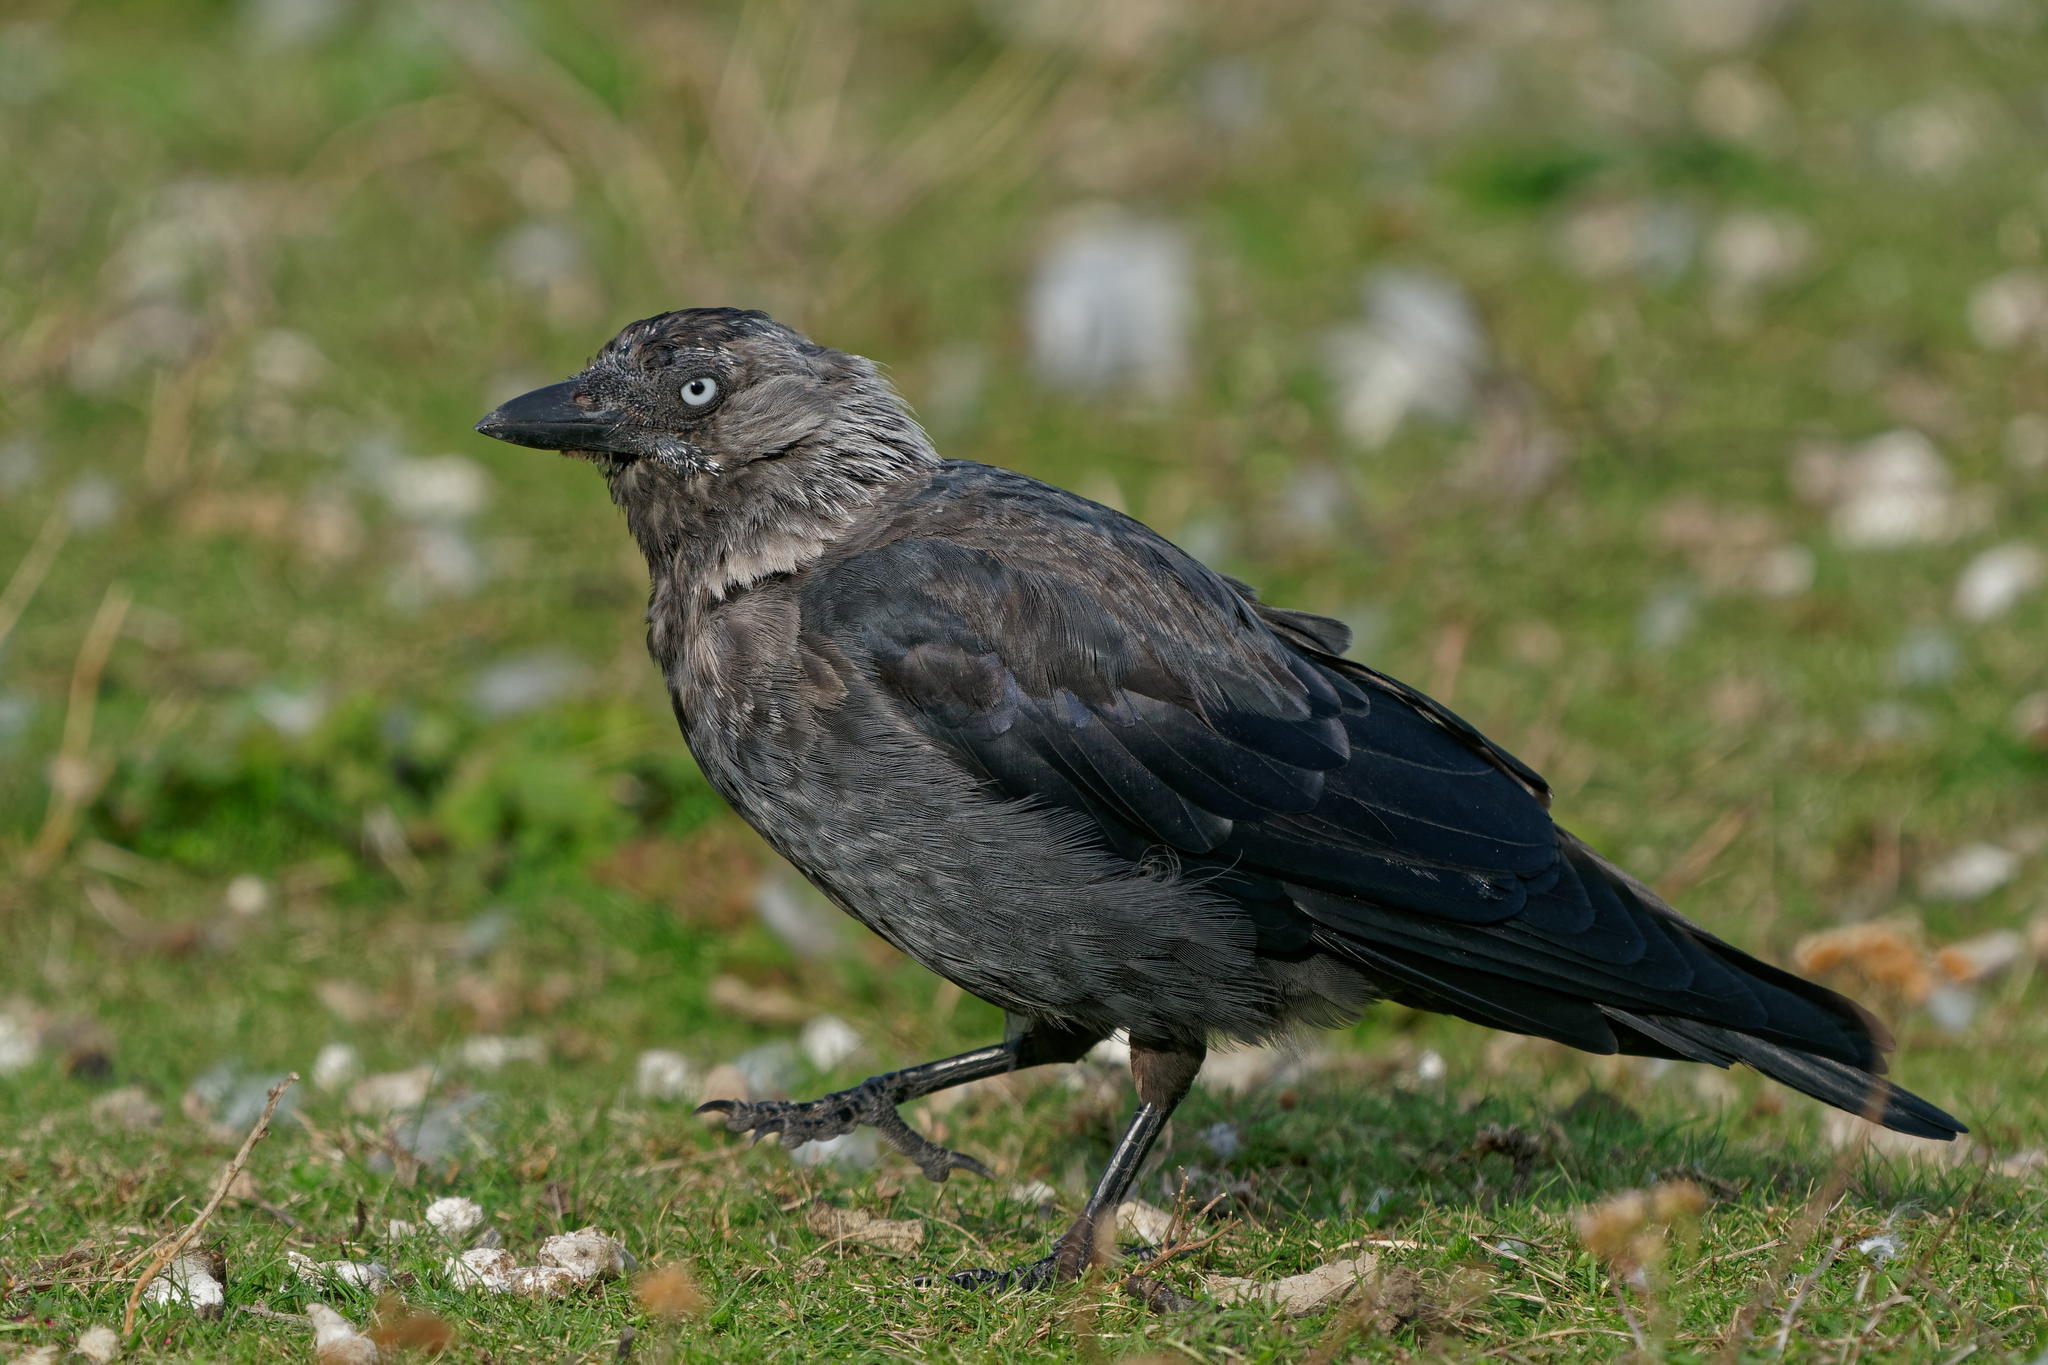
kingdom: Animalia
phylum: Chordata
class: Aves
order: Passeriformes
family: Corvidae
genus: Coloeus
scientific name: Coloeus monedula
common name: Western jackdaw
